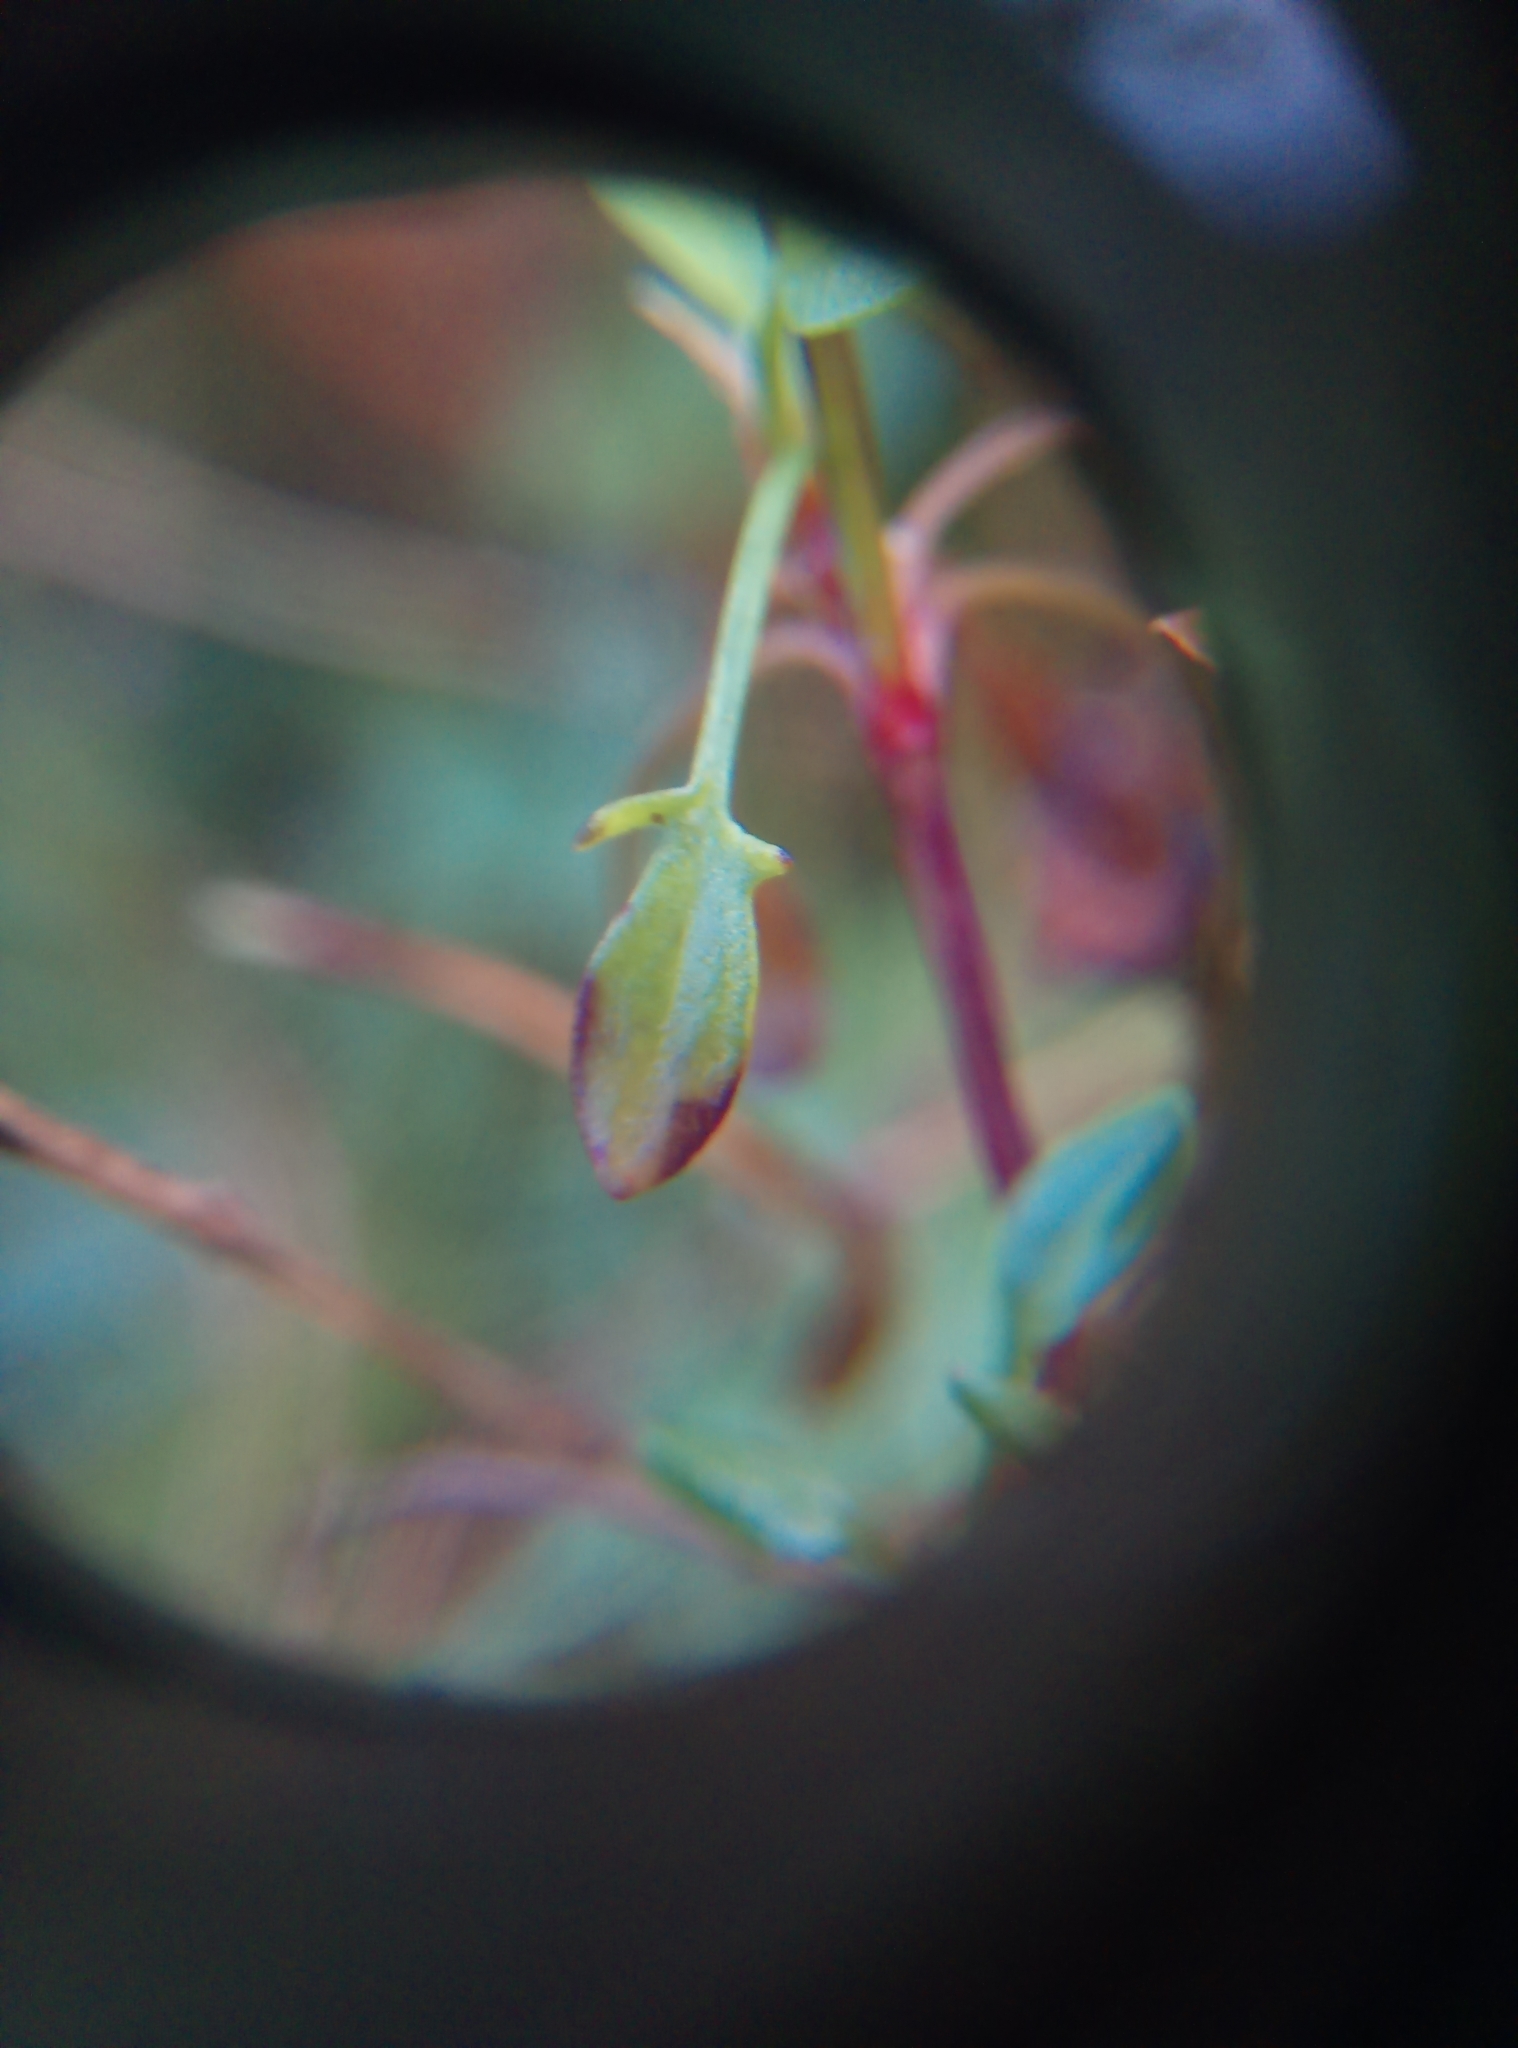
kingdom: Plantae
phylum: Tracheophyta
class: Magnoliopsida
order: Caryophyllales
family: Polygonaceae
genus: Rumex
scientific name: Rumex acetosella
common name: Common sheep sorrel
